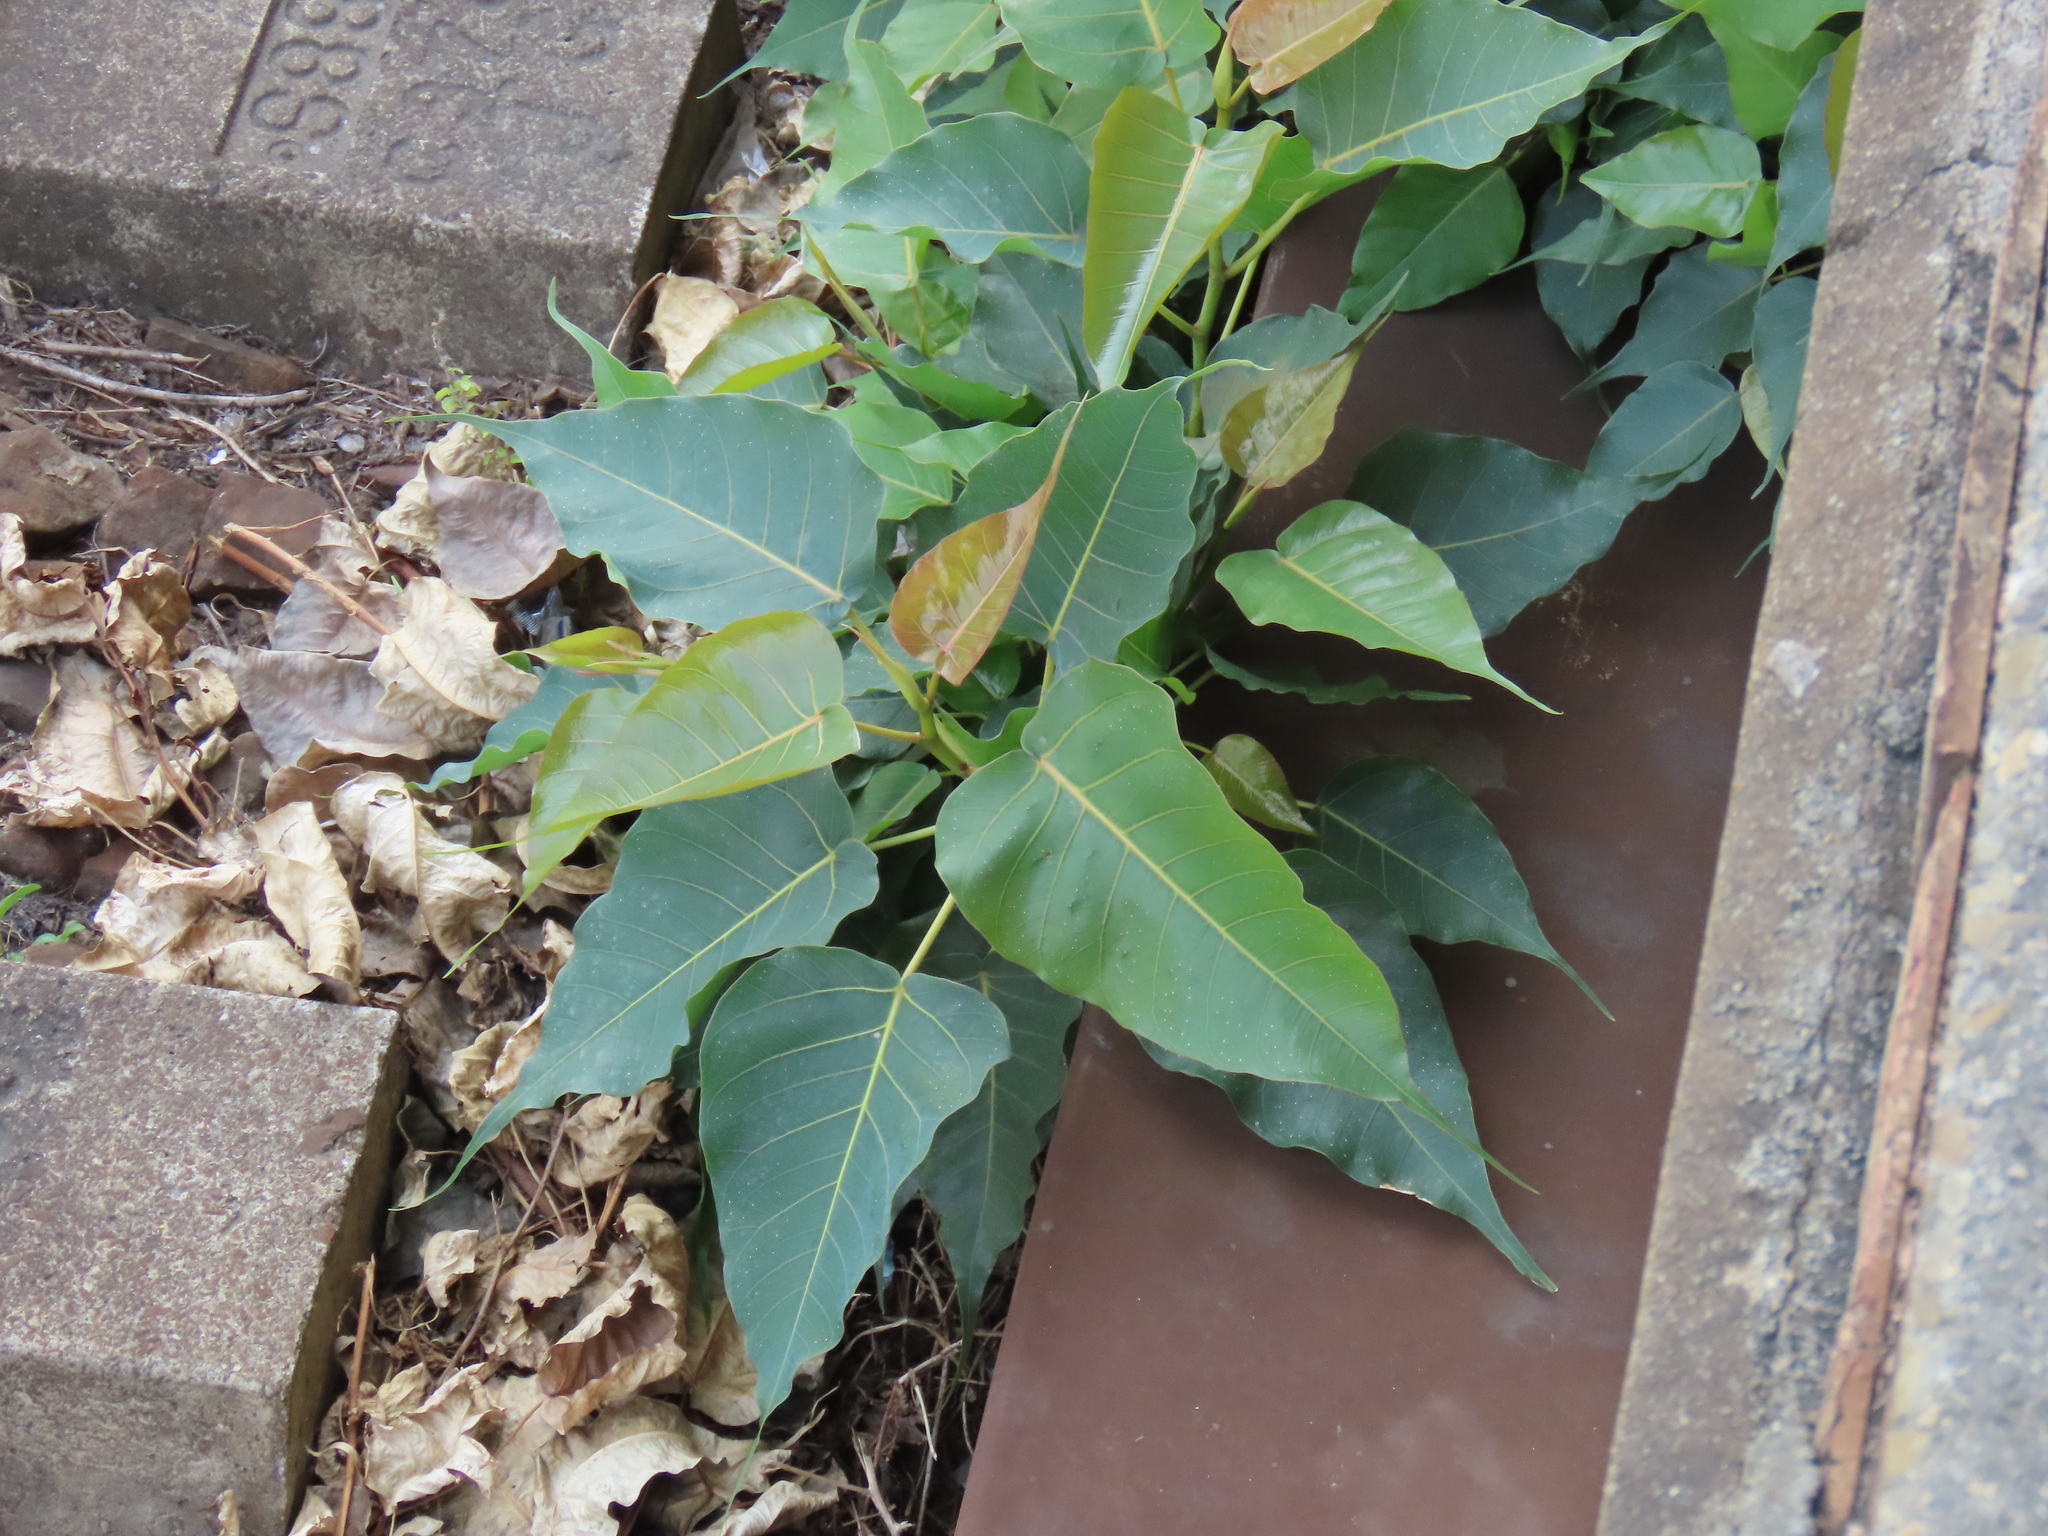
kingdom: Plantae
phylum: Tracheophyta
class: Magnoliopsida
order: Rosales
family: Moraceae
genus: Ficus
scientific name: Ficus religiosa
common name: Bodhi tree
